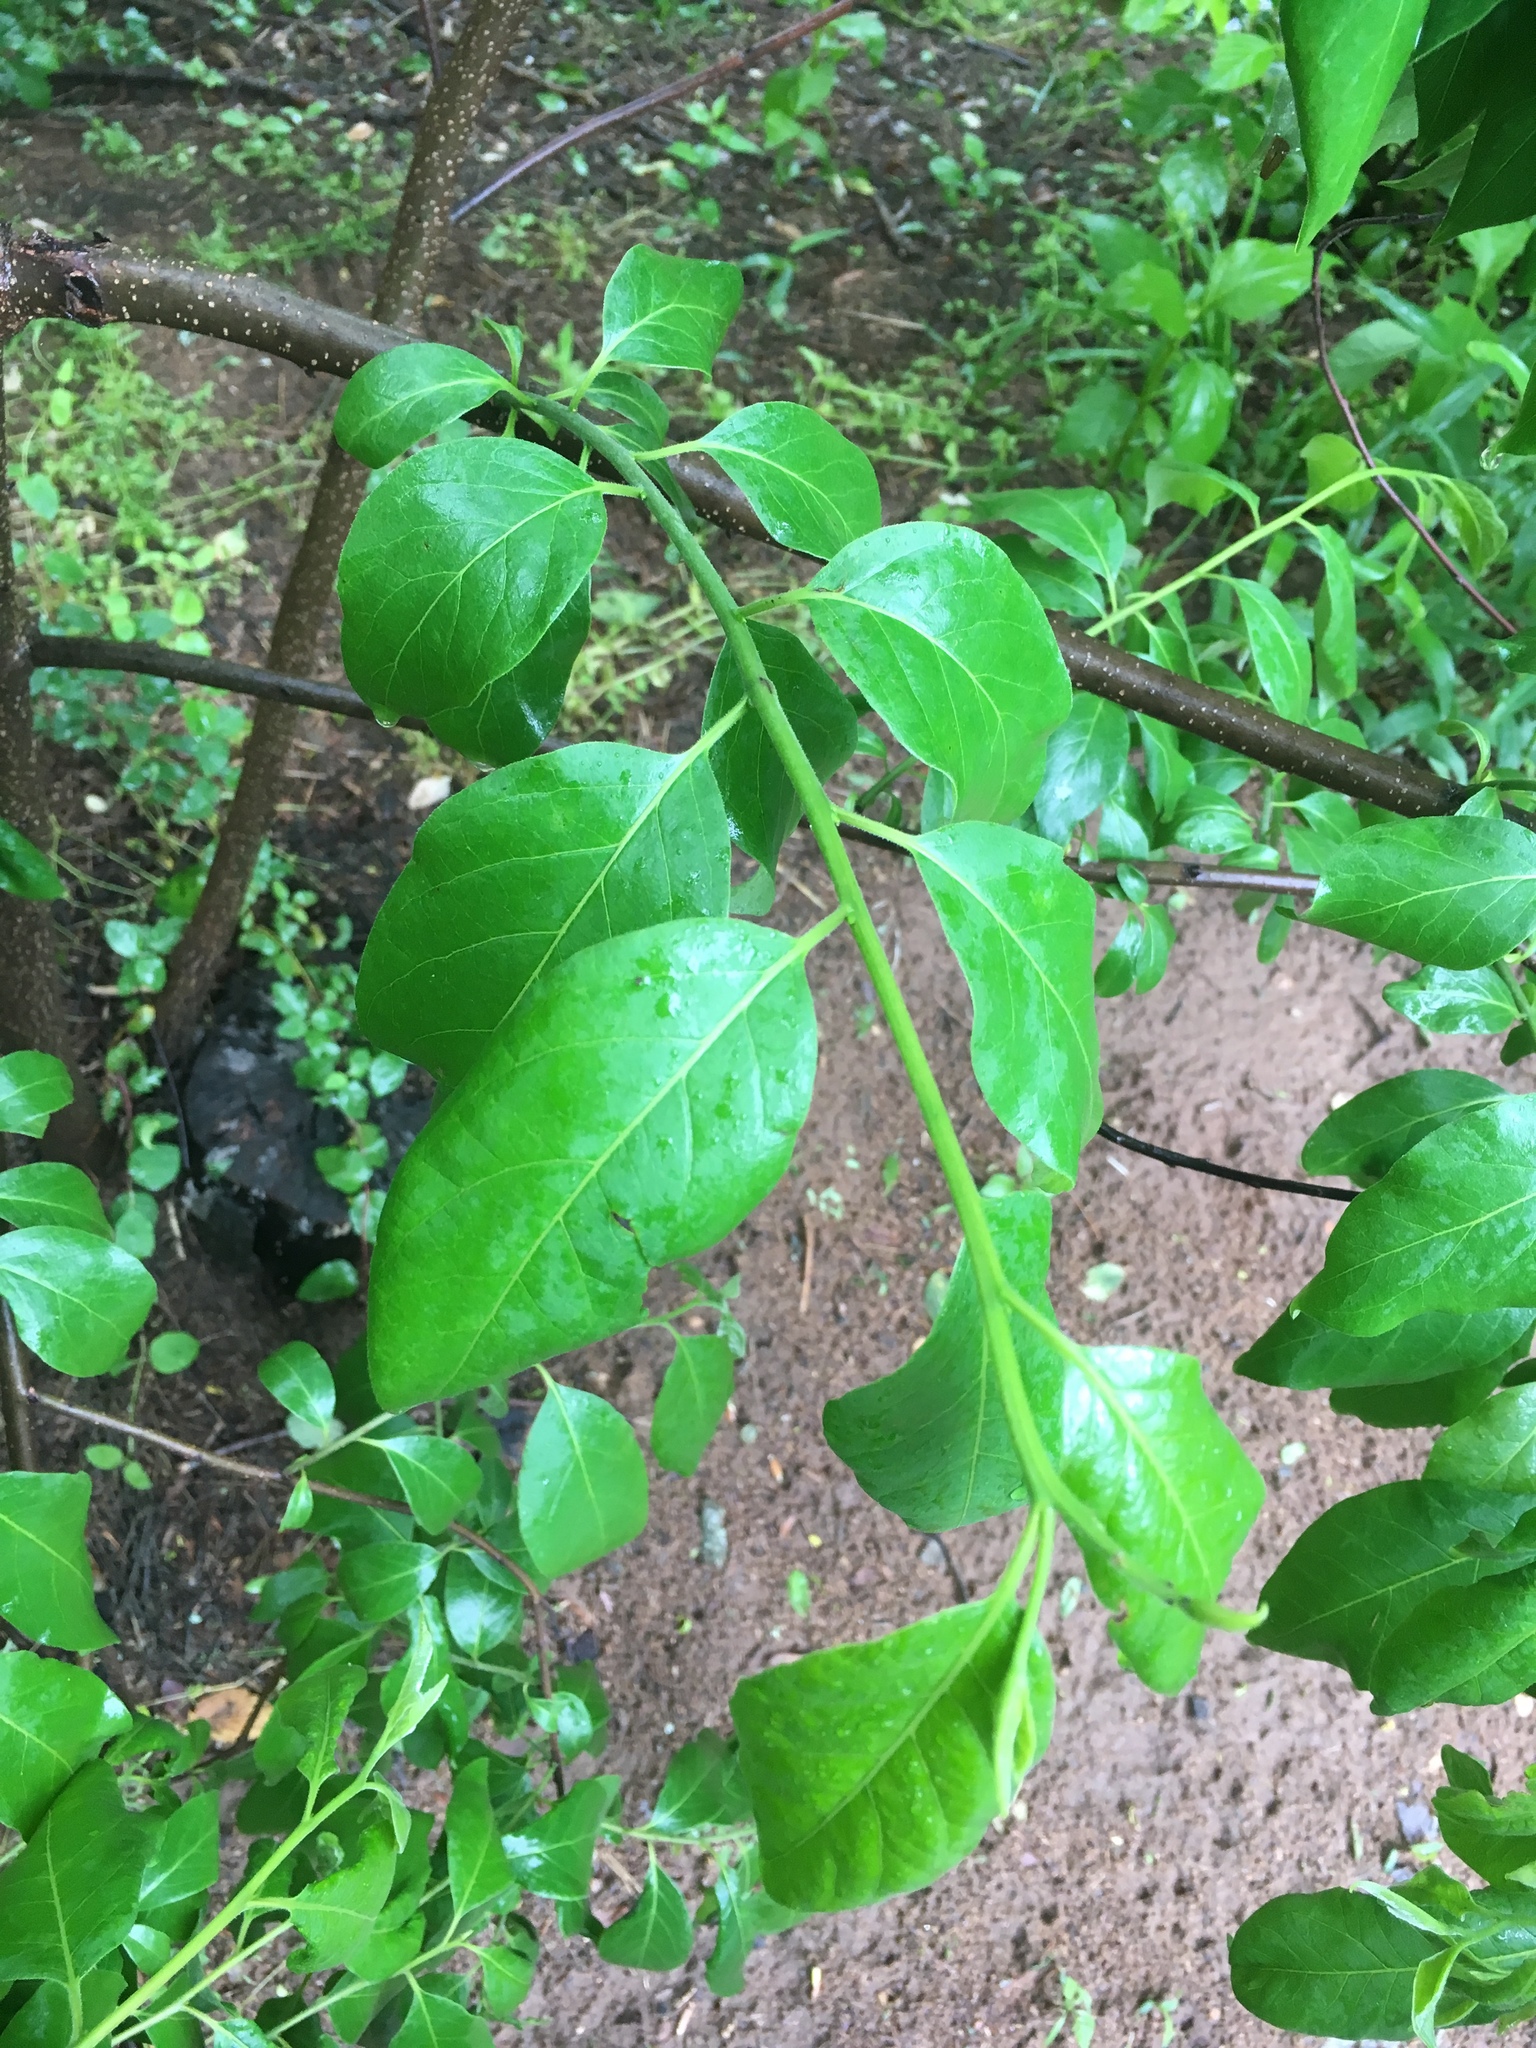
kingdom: Plantae
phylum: Tracheophyta
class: Magnoliopsida
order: Ericales
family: Ebenaceae
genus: Diospyros
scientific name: Diospyros virginiana
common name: Persimmon
